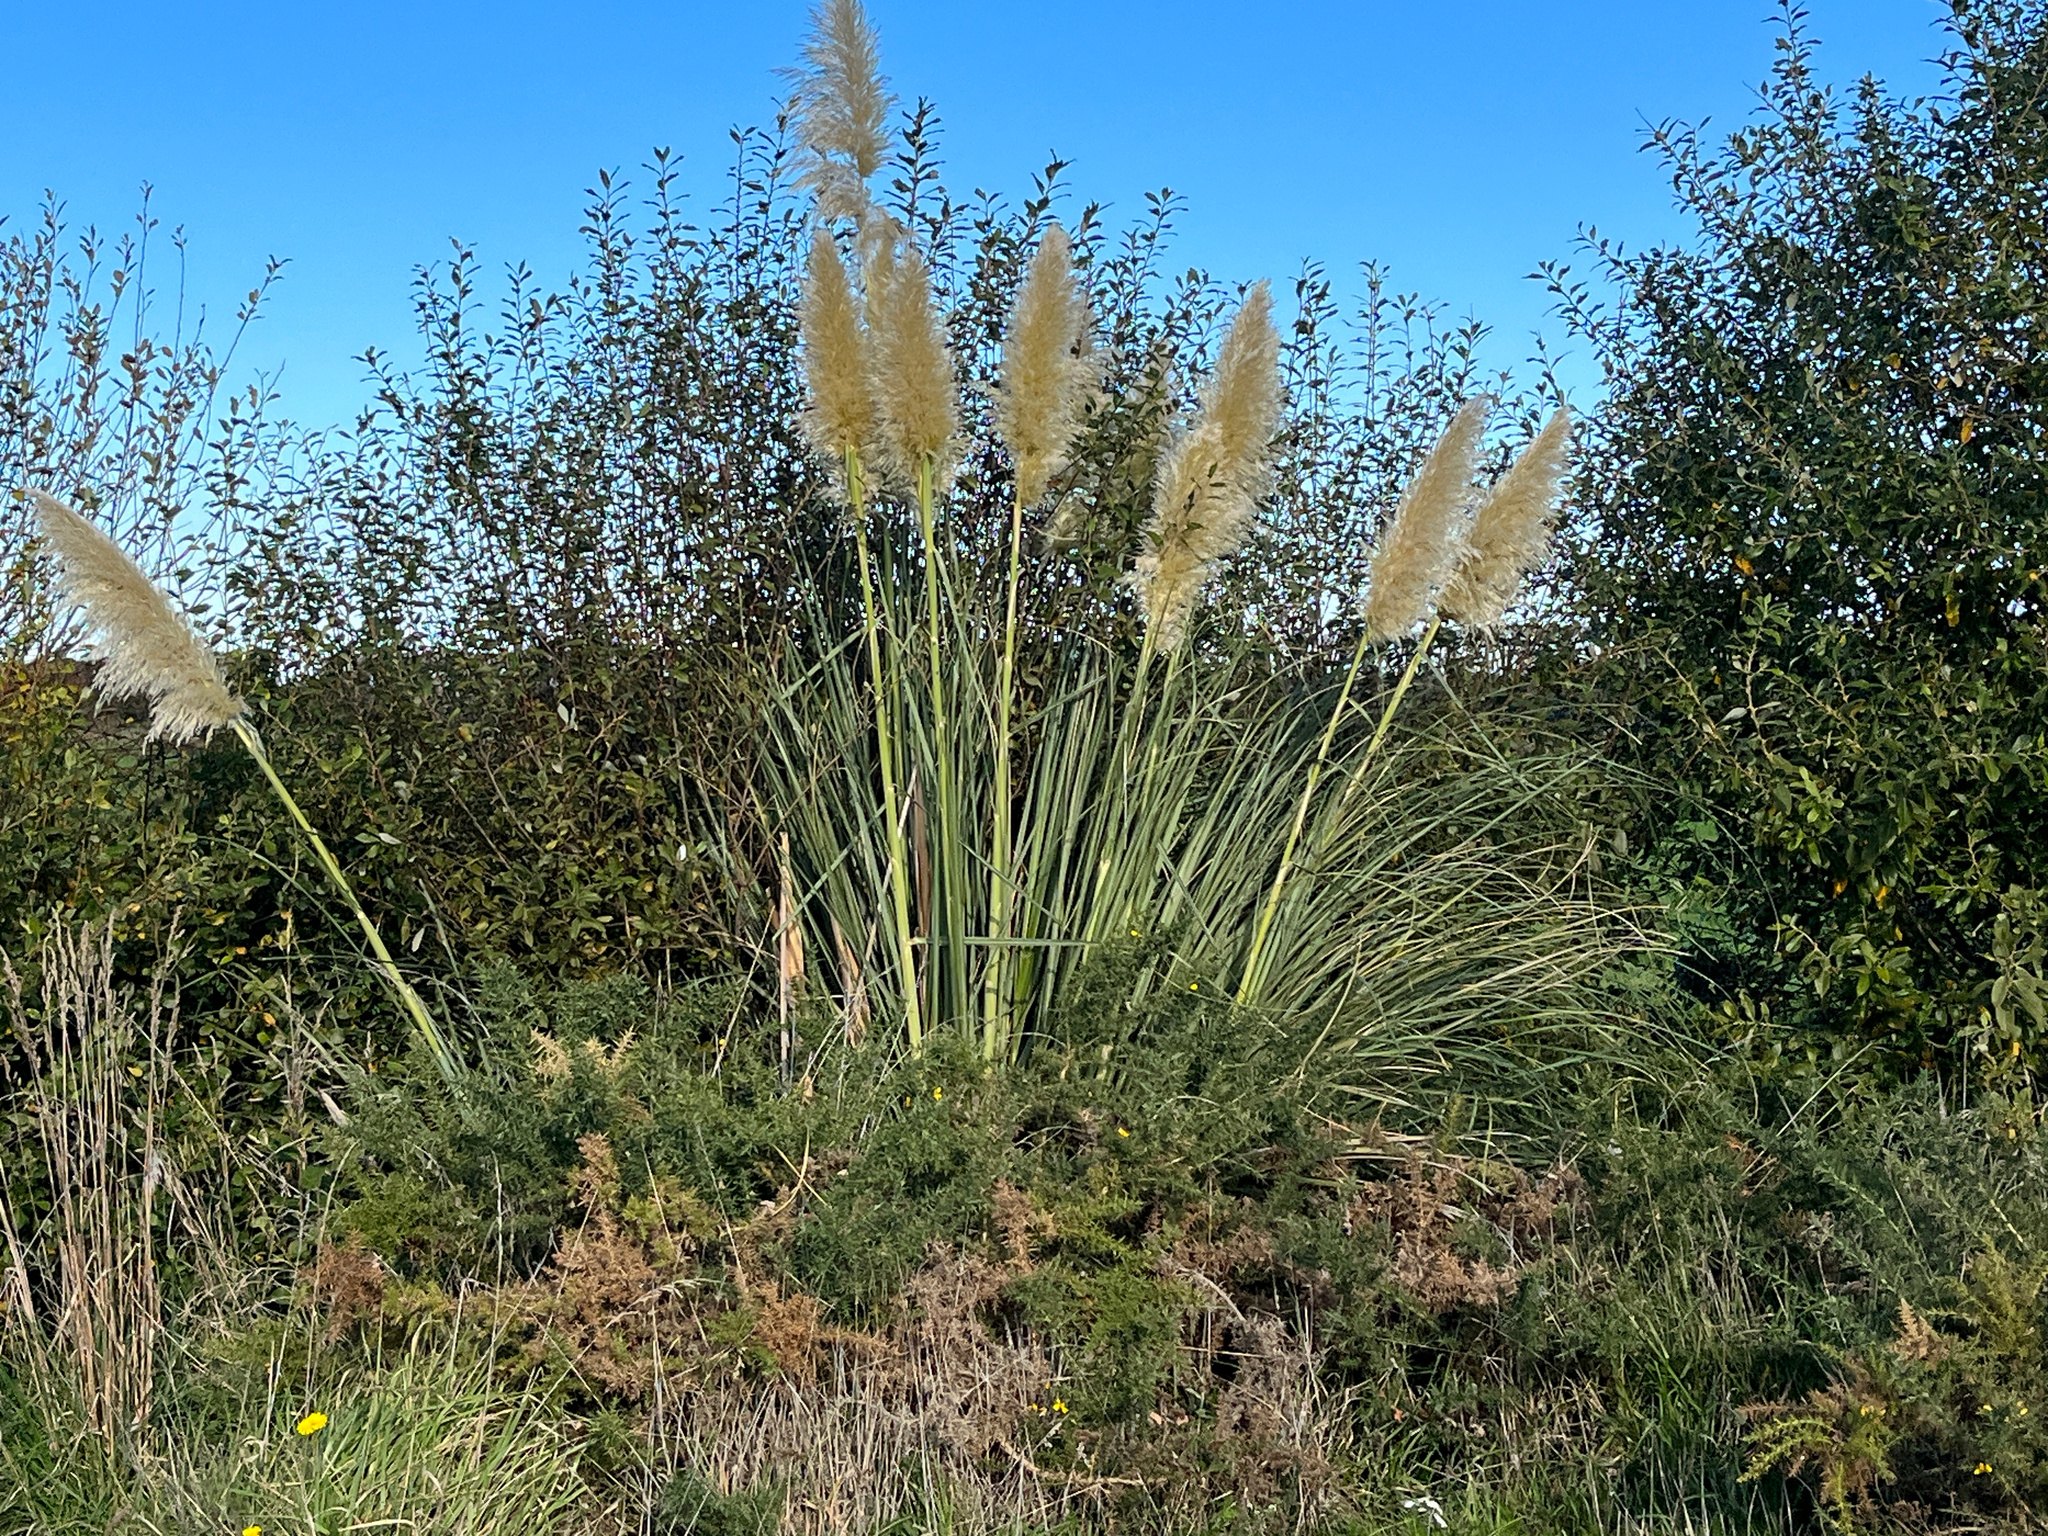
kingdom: Plantae
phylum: Tracheophyta
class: Magnoliopsida
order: Fabales
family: Fabaceae
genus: Ulex
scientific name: Ulex europaeus
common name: Common gorse
